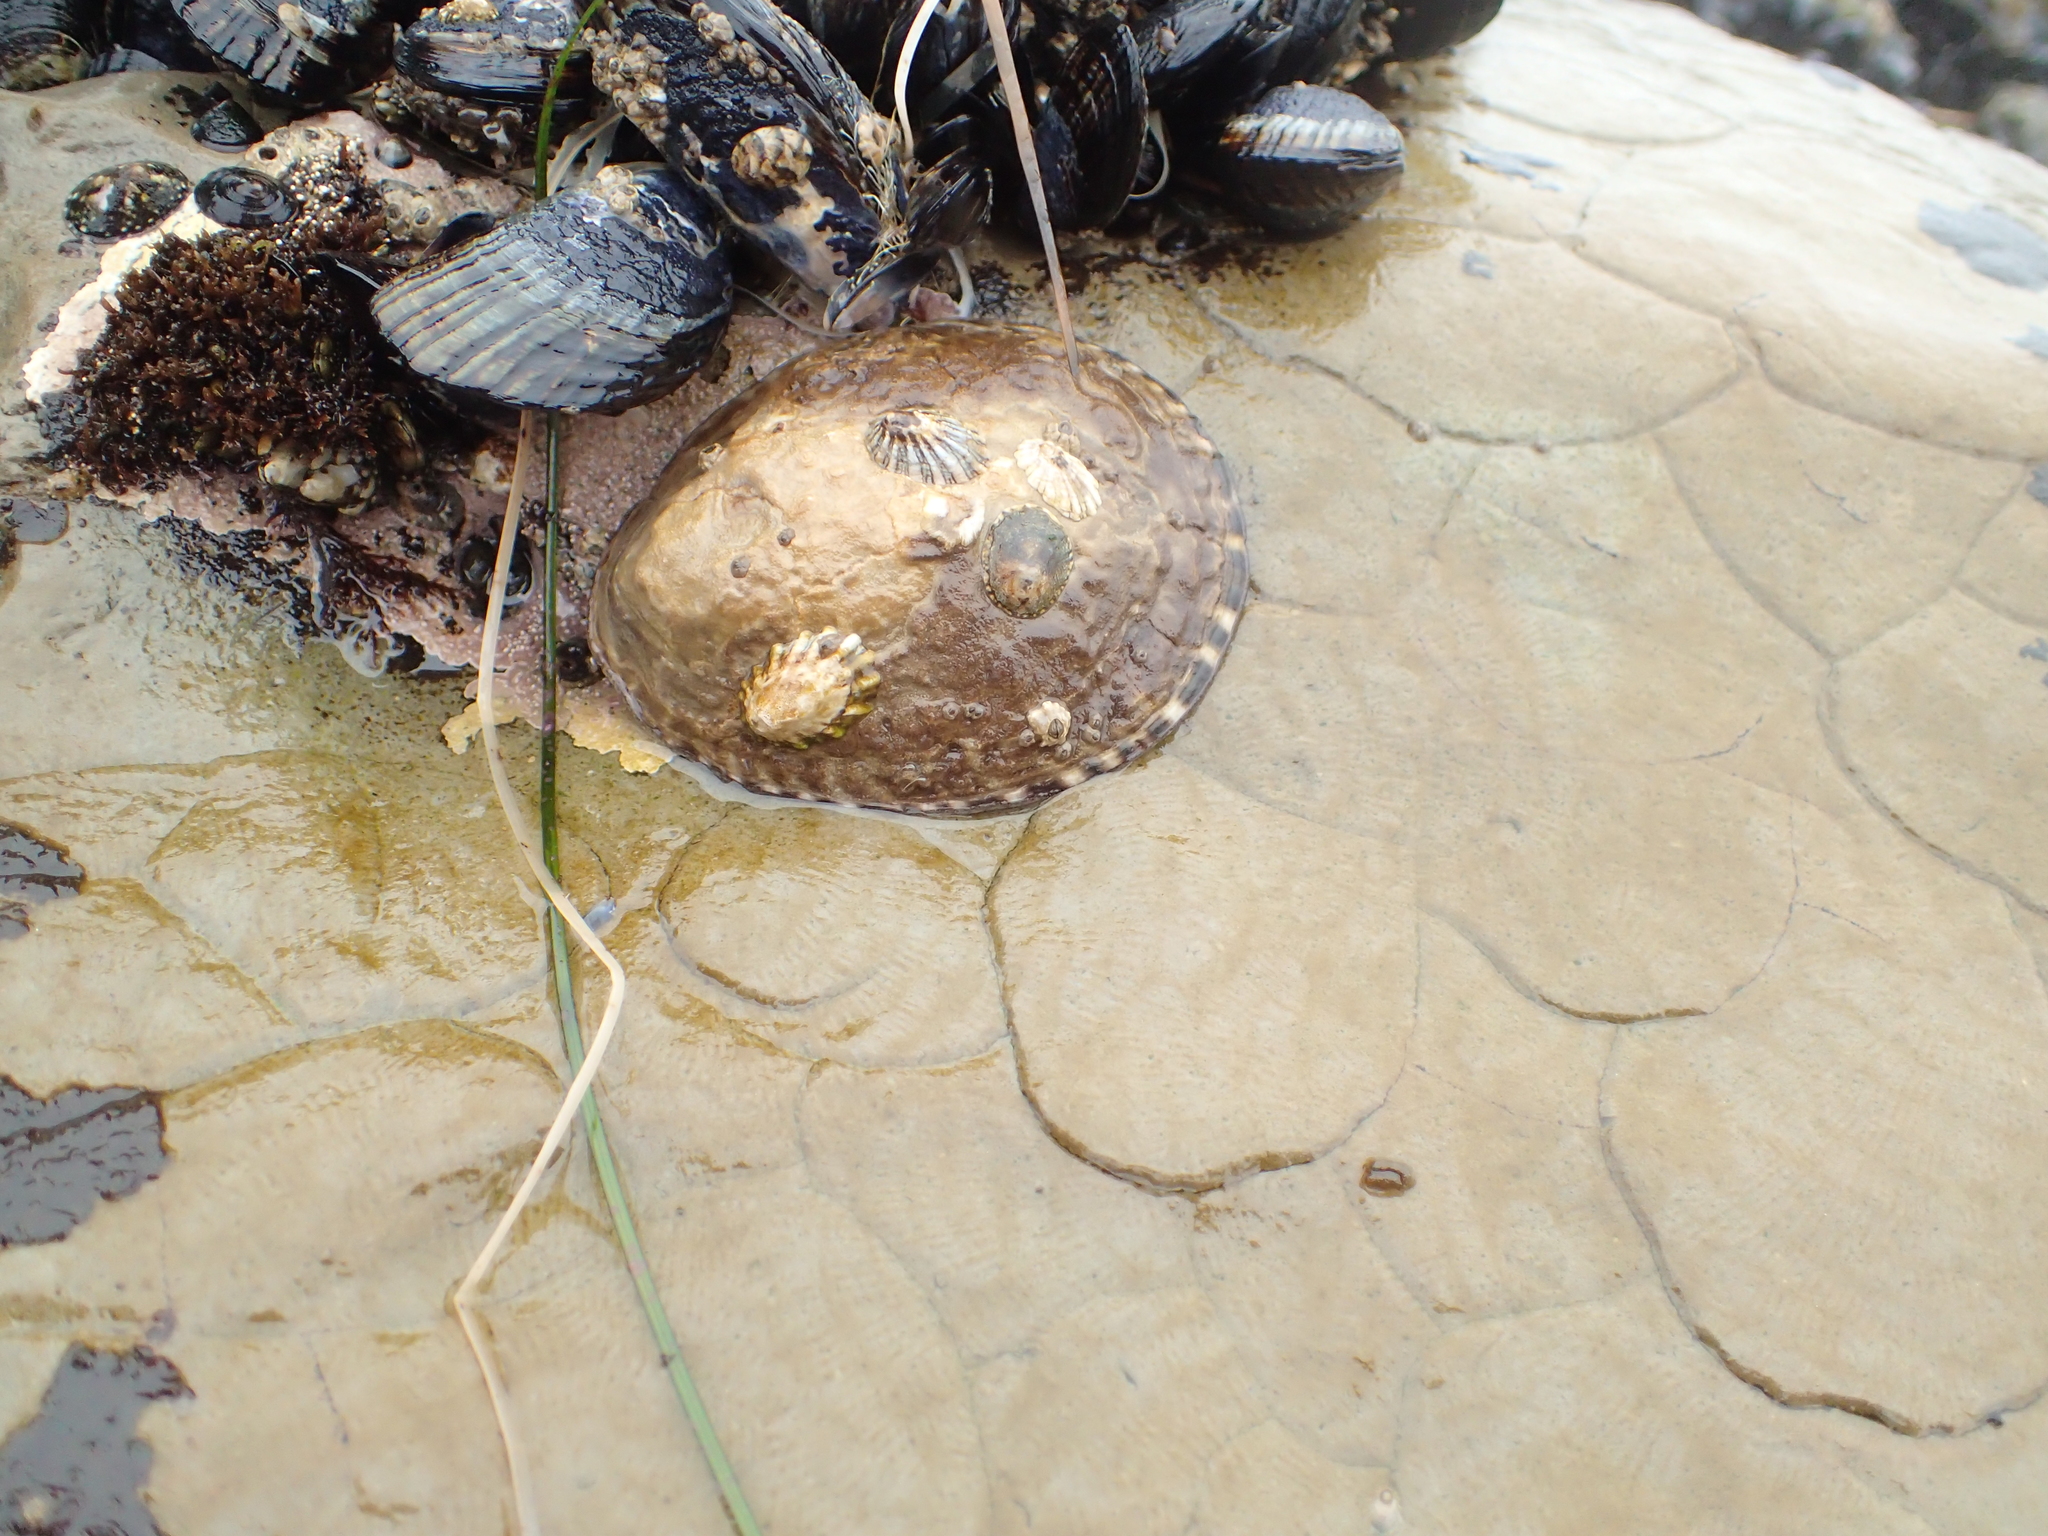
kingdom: Animalia
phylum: Mollusca
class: Gastropoda
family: Lottiidae
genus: Lottia
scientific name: Lottia gigantea
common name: Owl limpet
